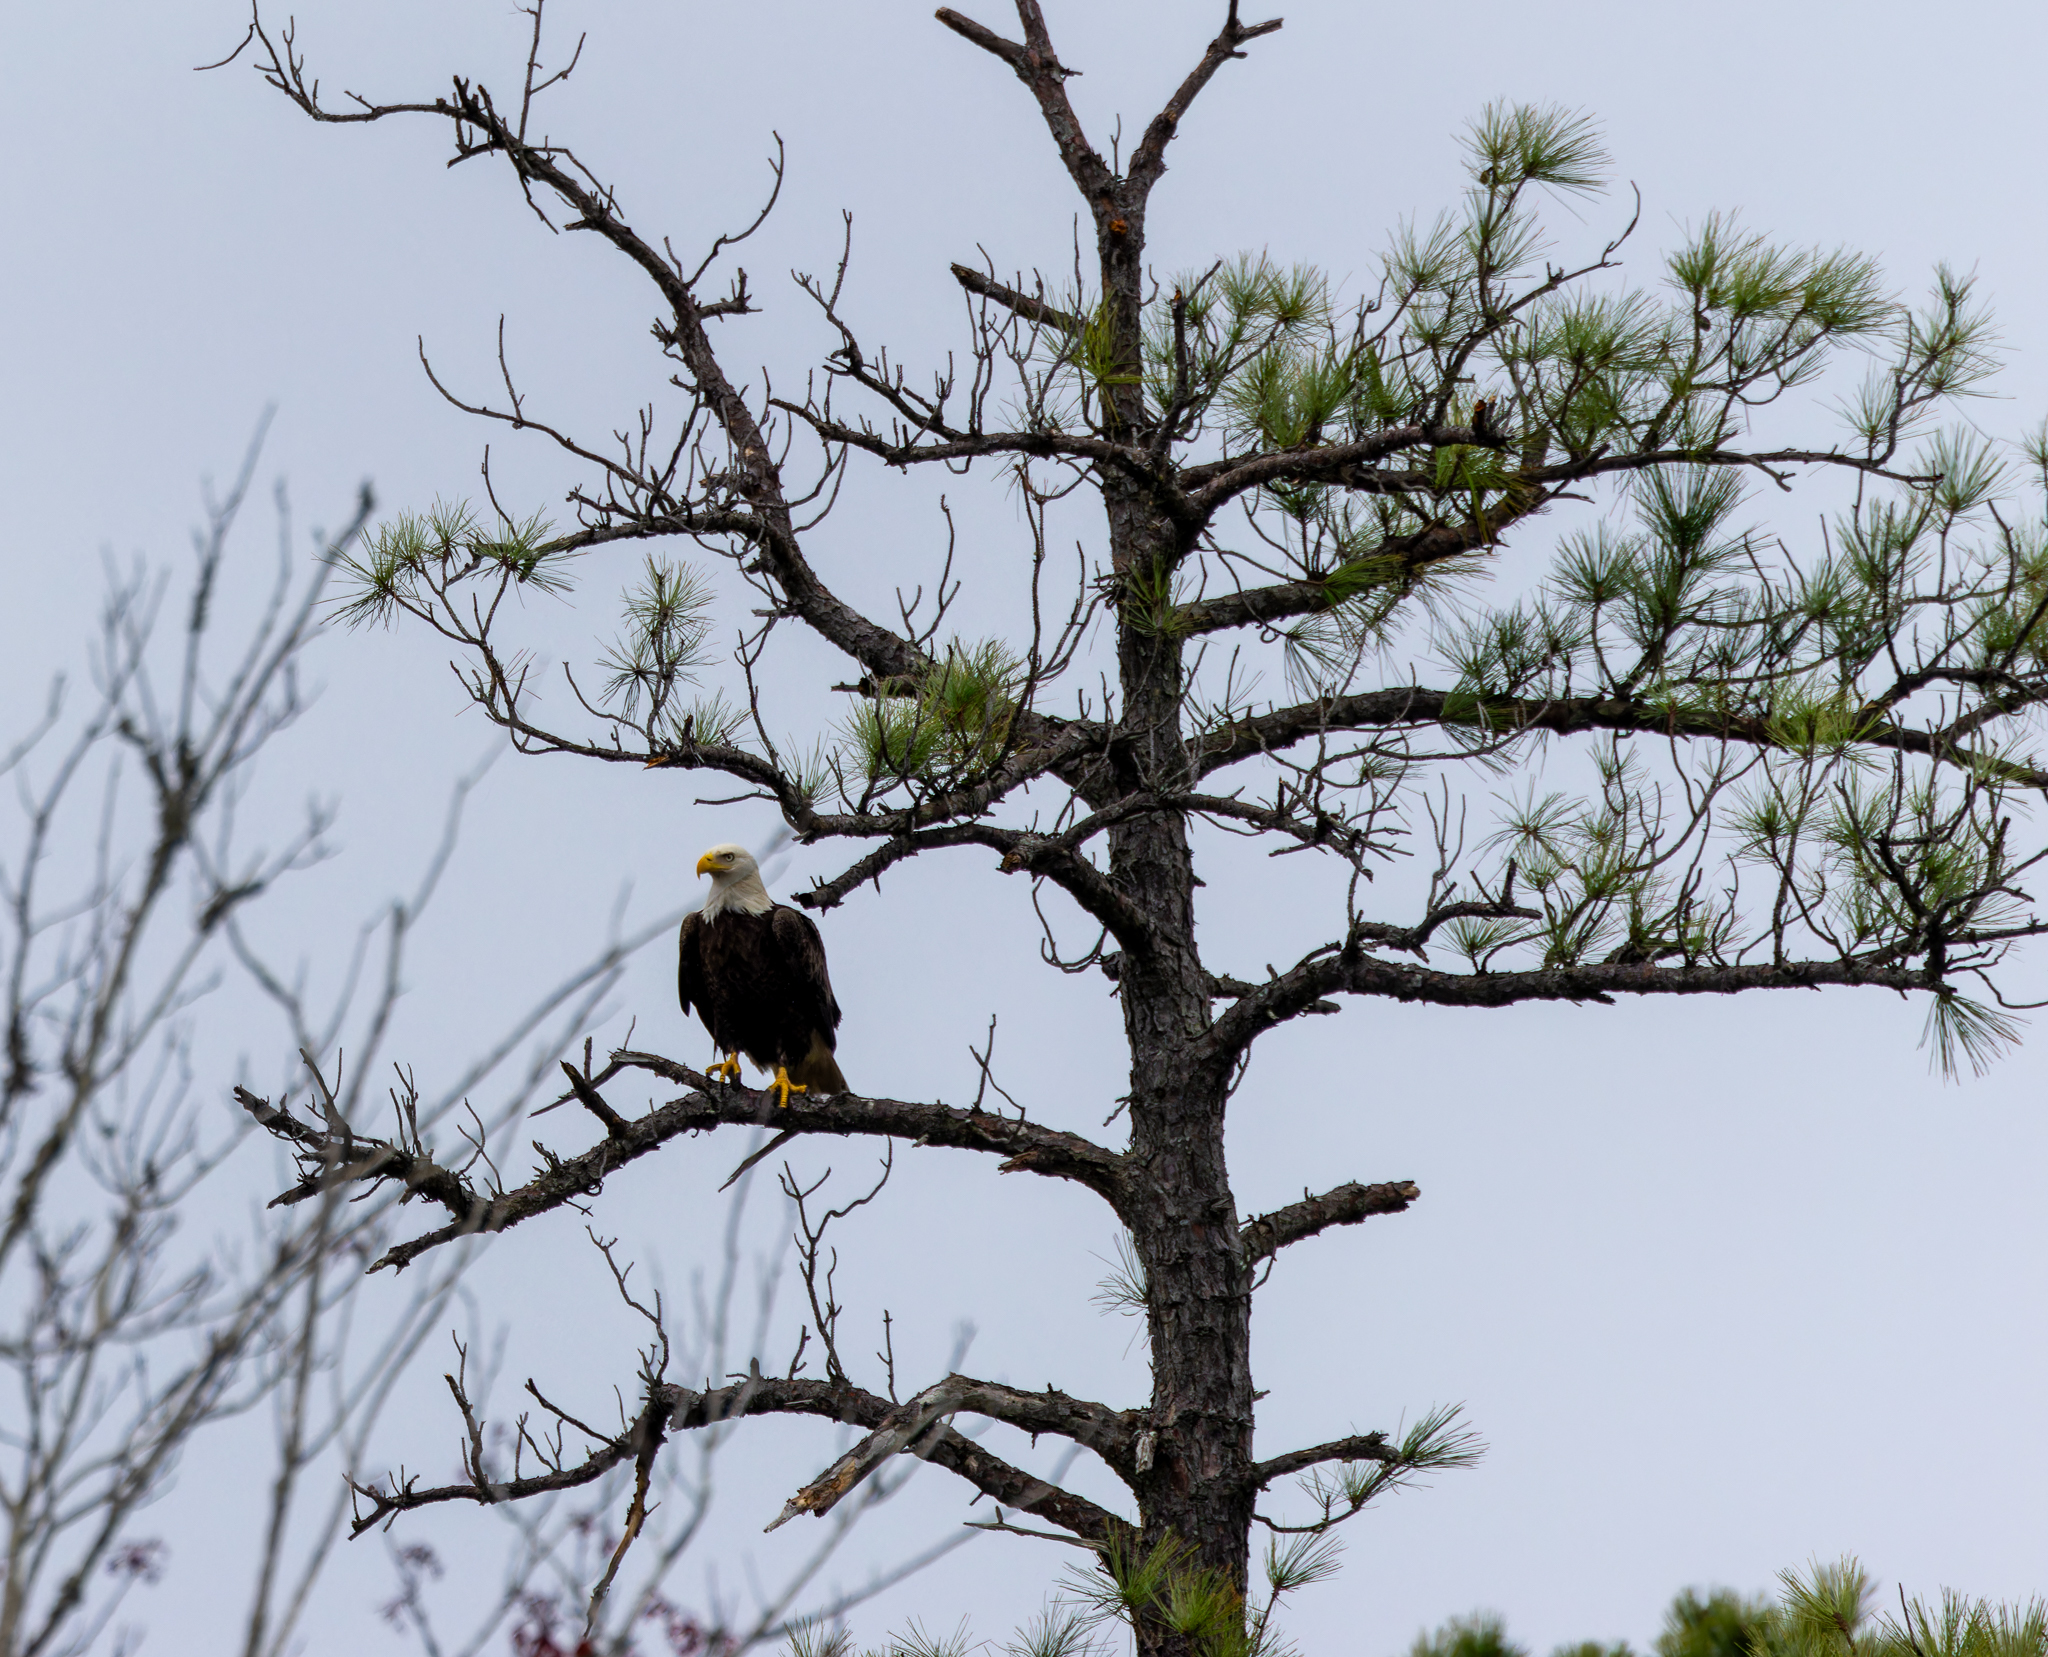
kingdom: Animalia
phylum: Chordata
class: Aves
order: Accipitriformes
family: Accipitridae
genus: Haliaeetus
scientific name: Haliaeetus leucocephalus
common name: Bald eagle
